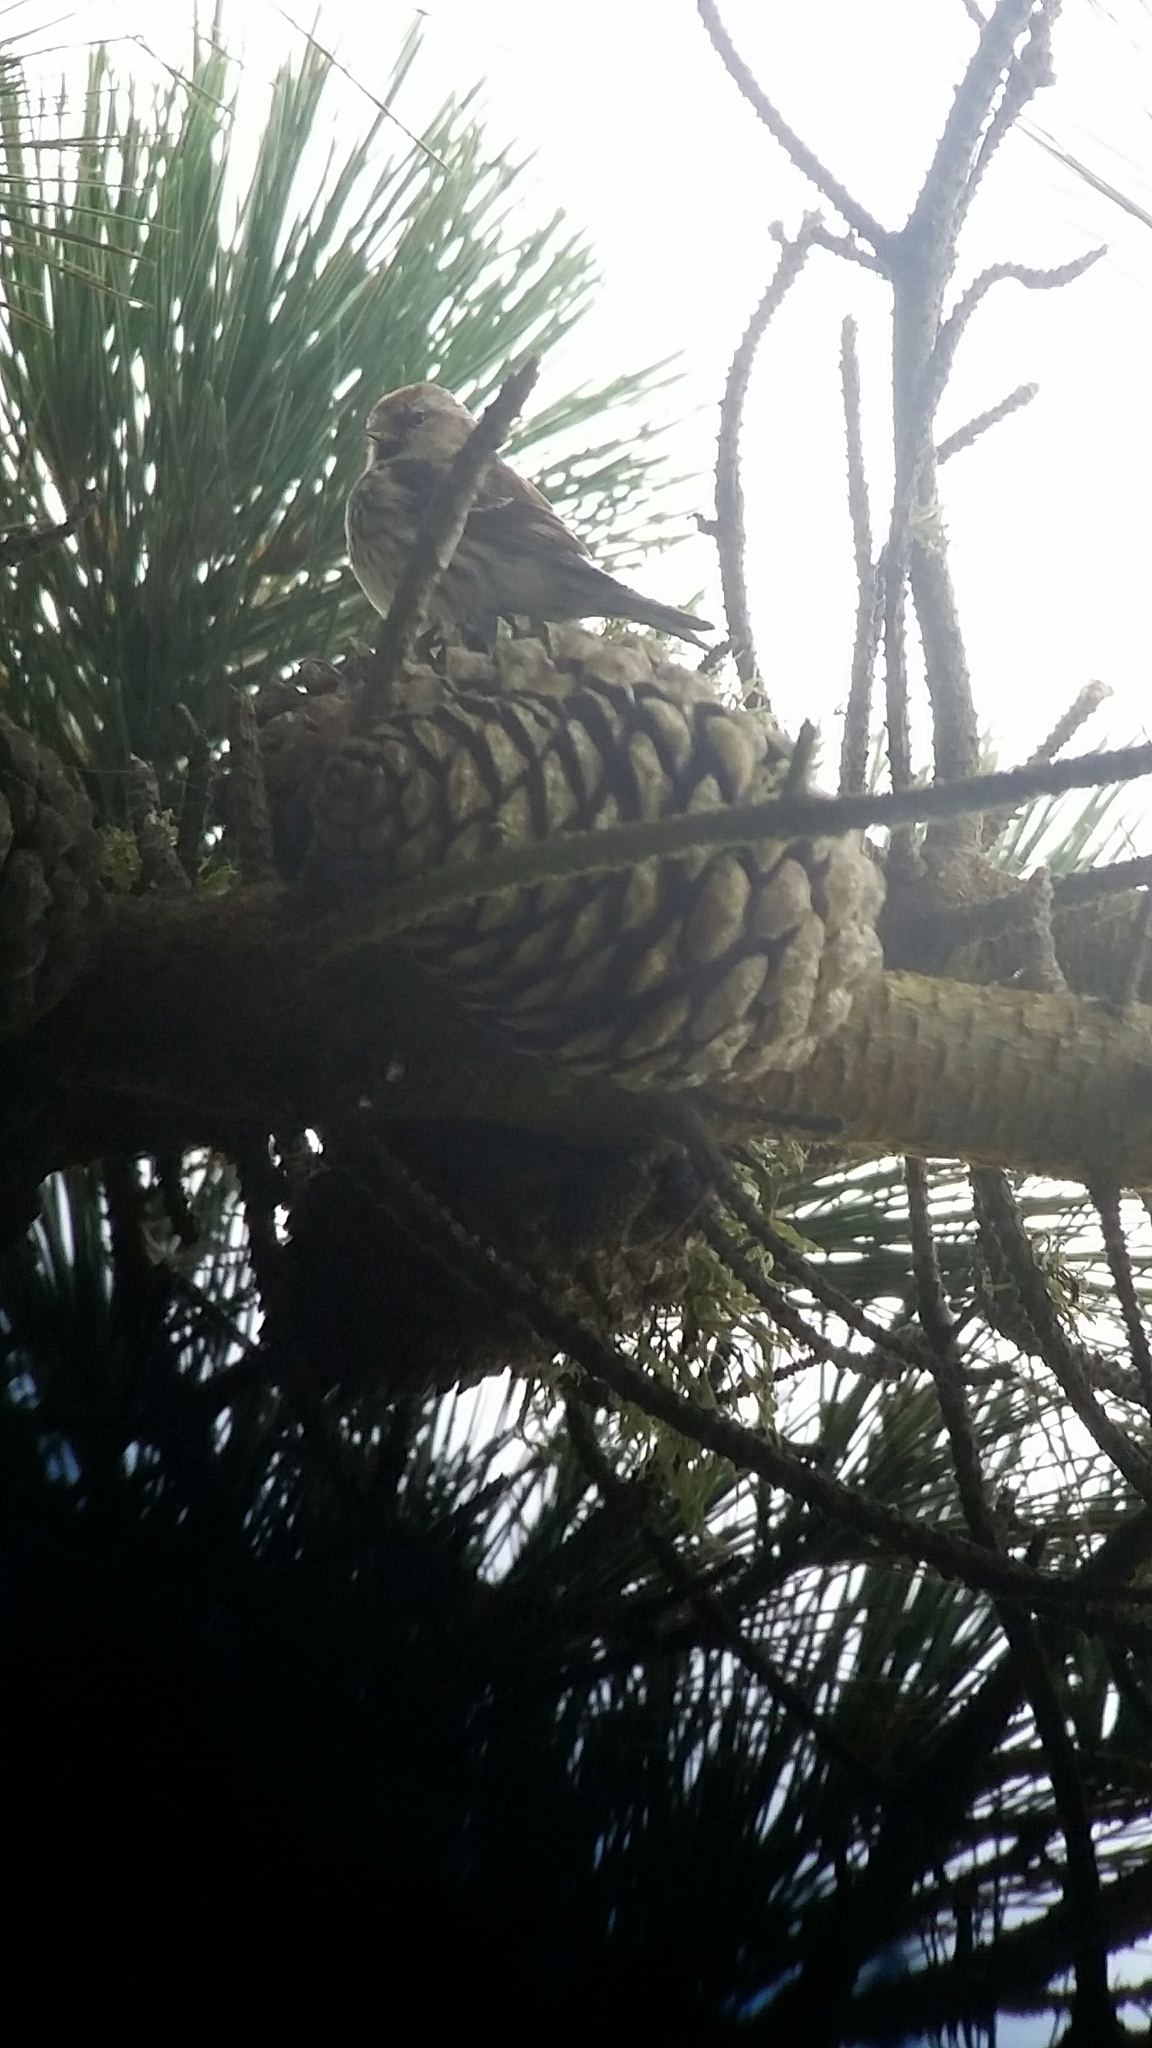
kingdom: Animalia
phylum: Chordata
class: Aves
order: Passeriformes
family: Fringillidae
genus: Acanthis
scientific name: Acanthis flammea
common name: Common redpoll
